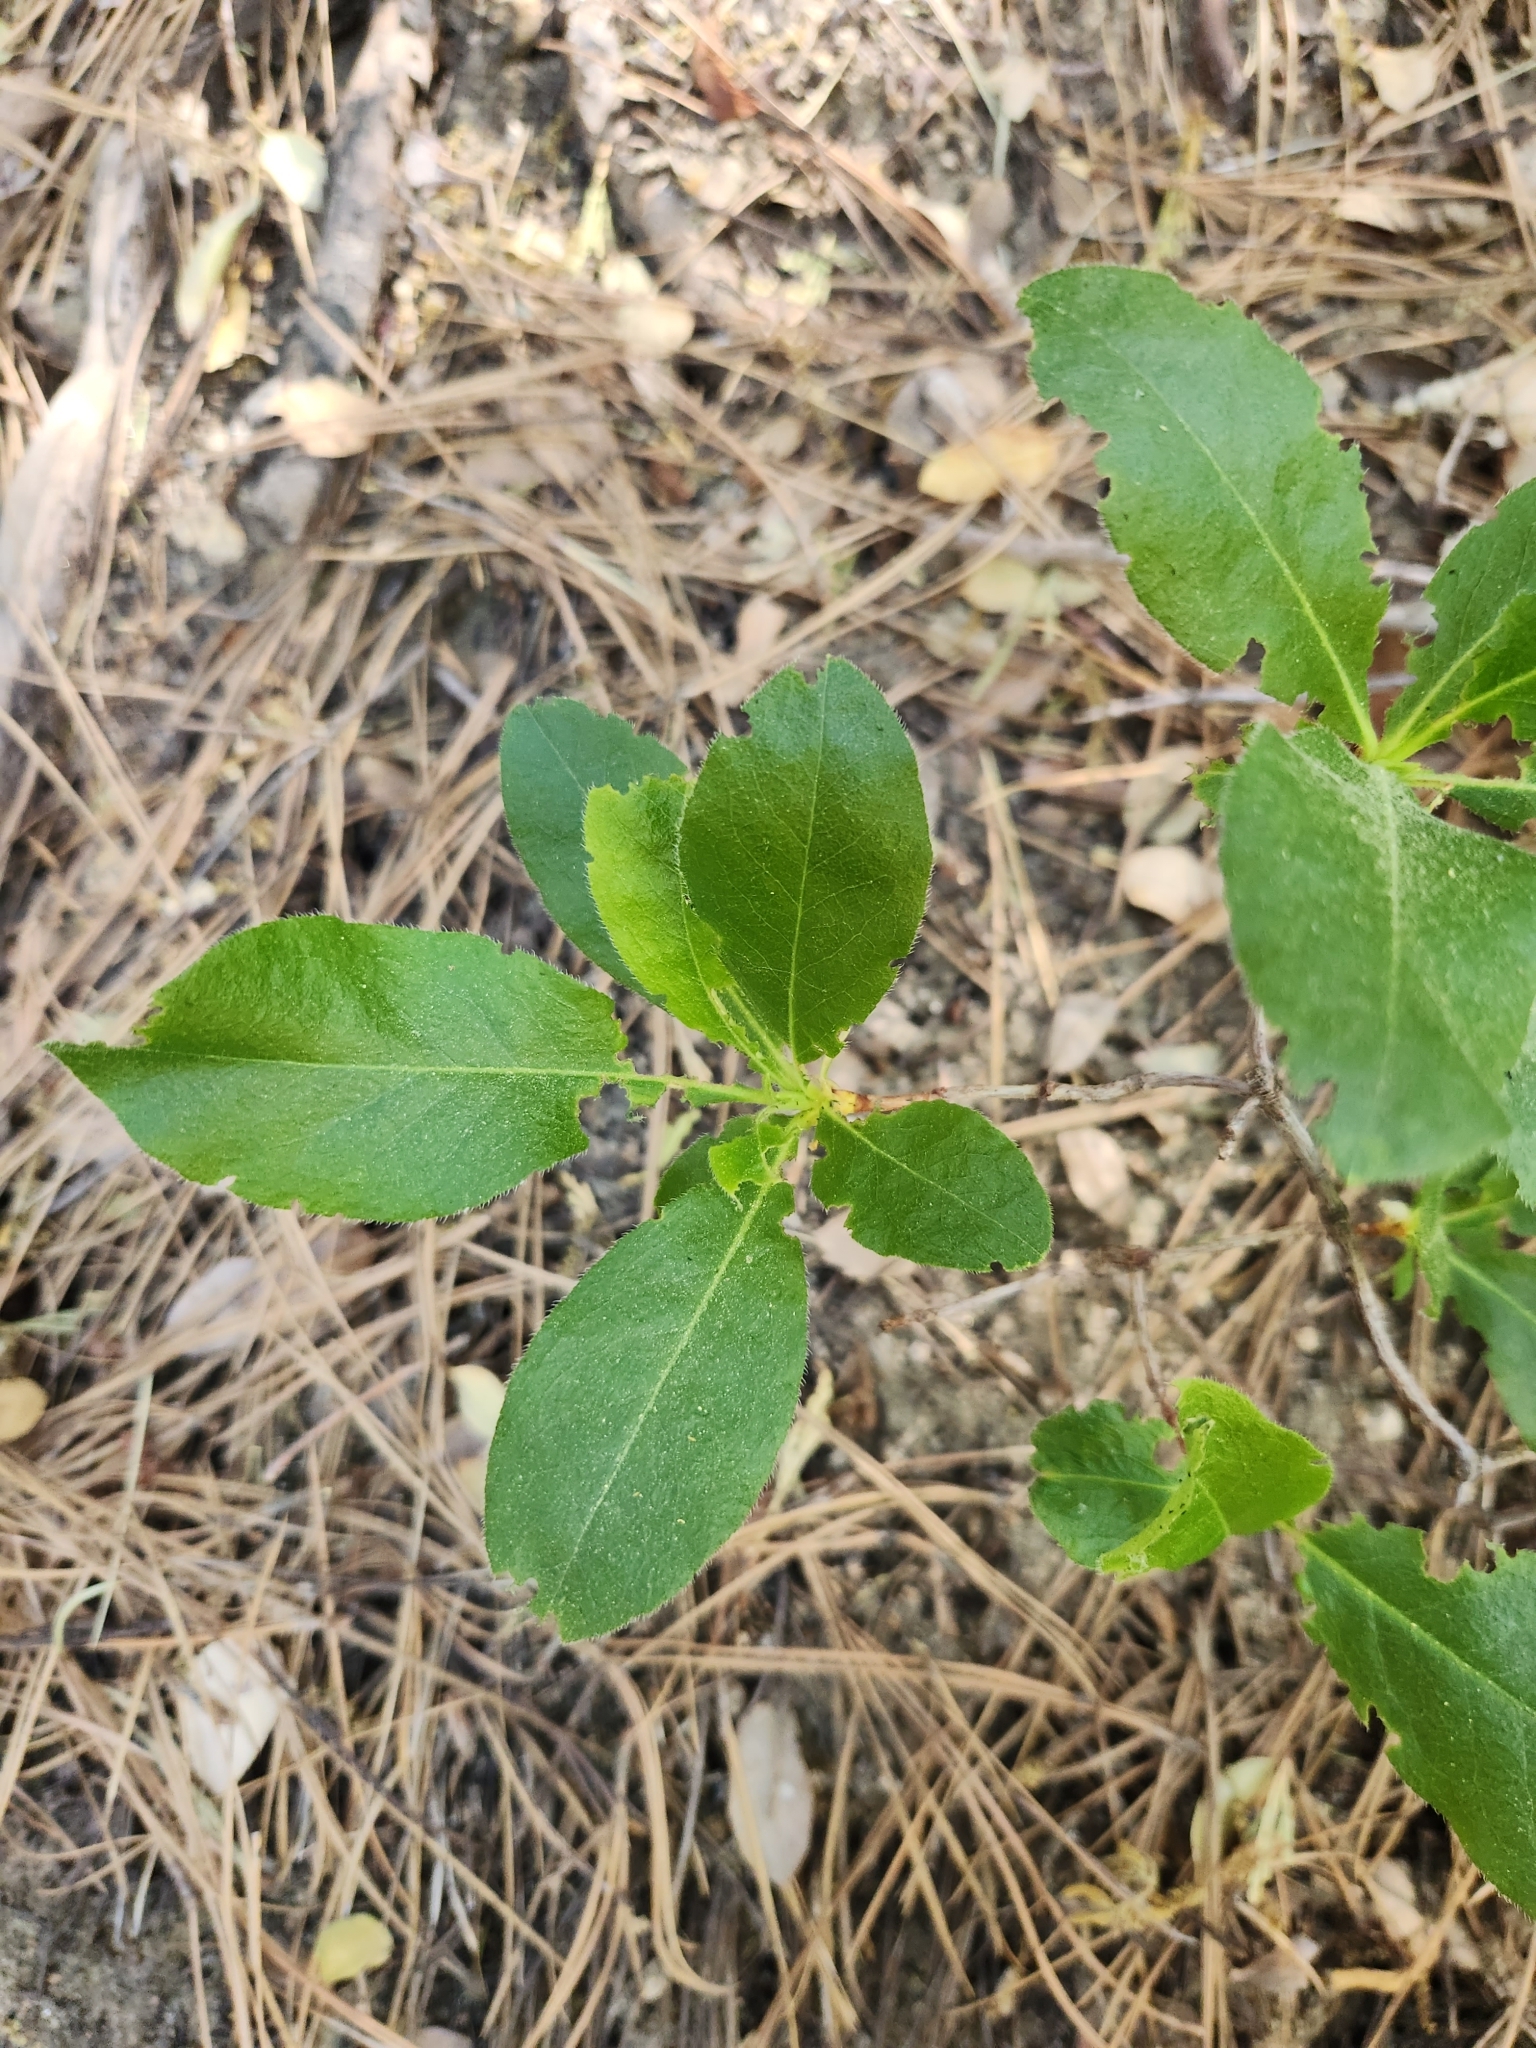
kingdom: Plantae
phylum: Tracheophyta
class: Magnoliopsida
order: Ericales
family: Ericaceae
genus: Rhododendron
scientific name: Rhododendron occidentale
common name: Western azalea
